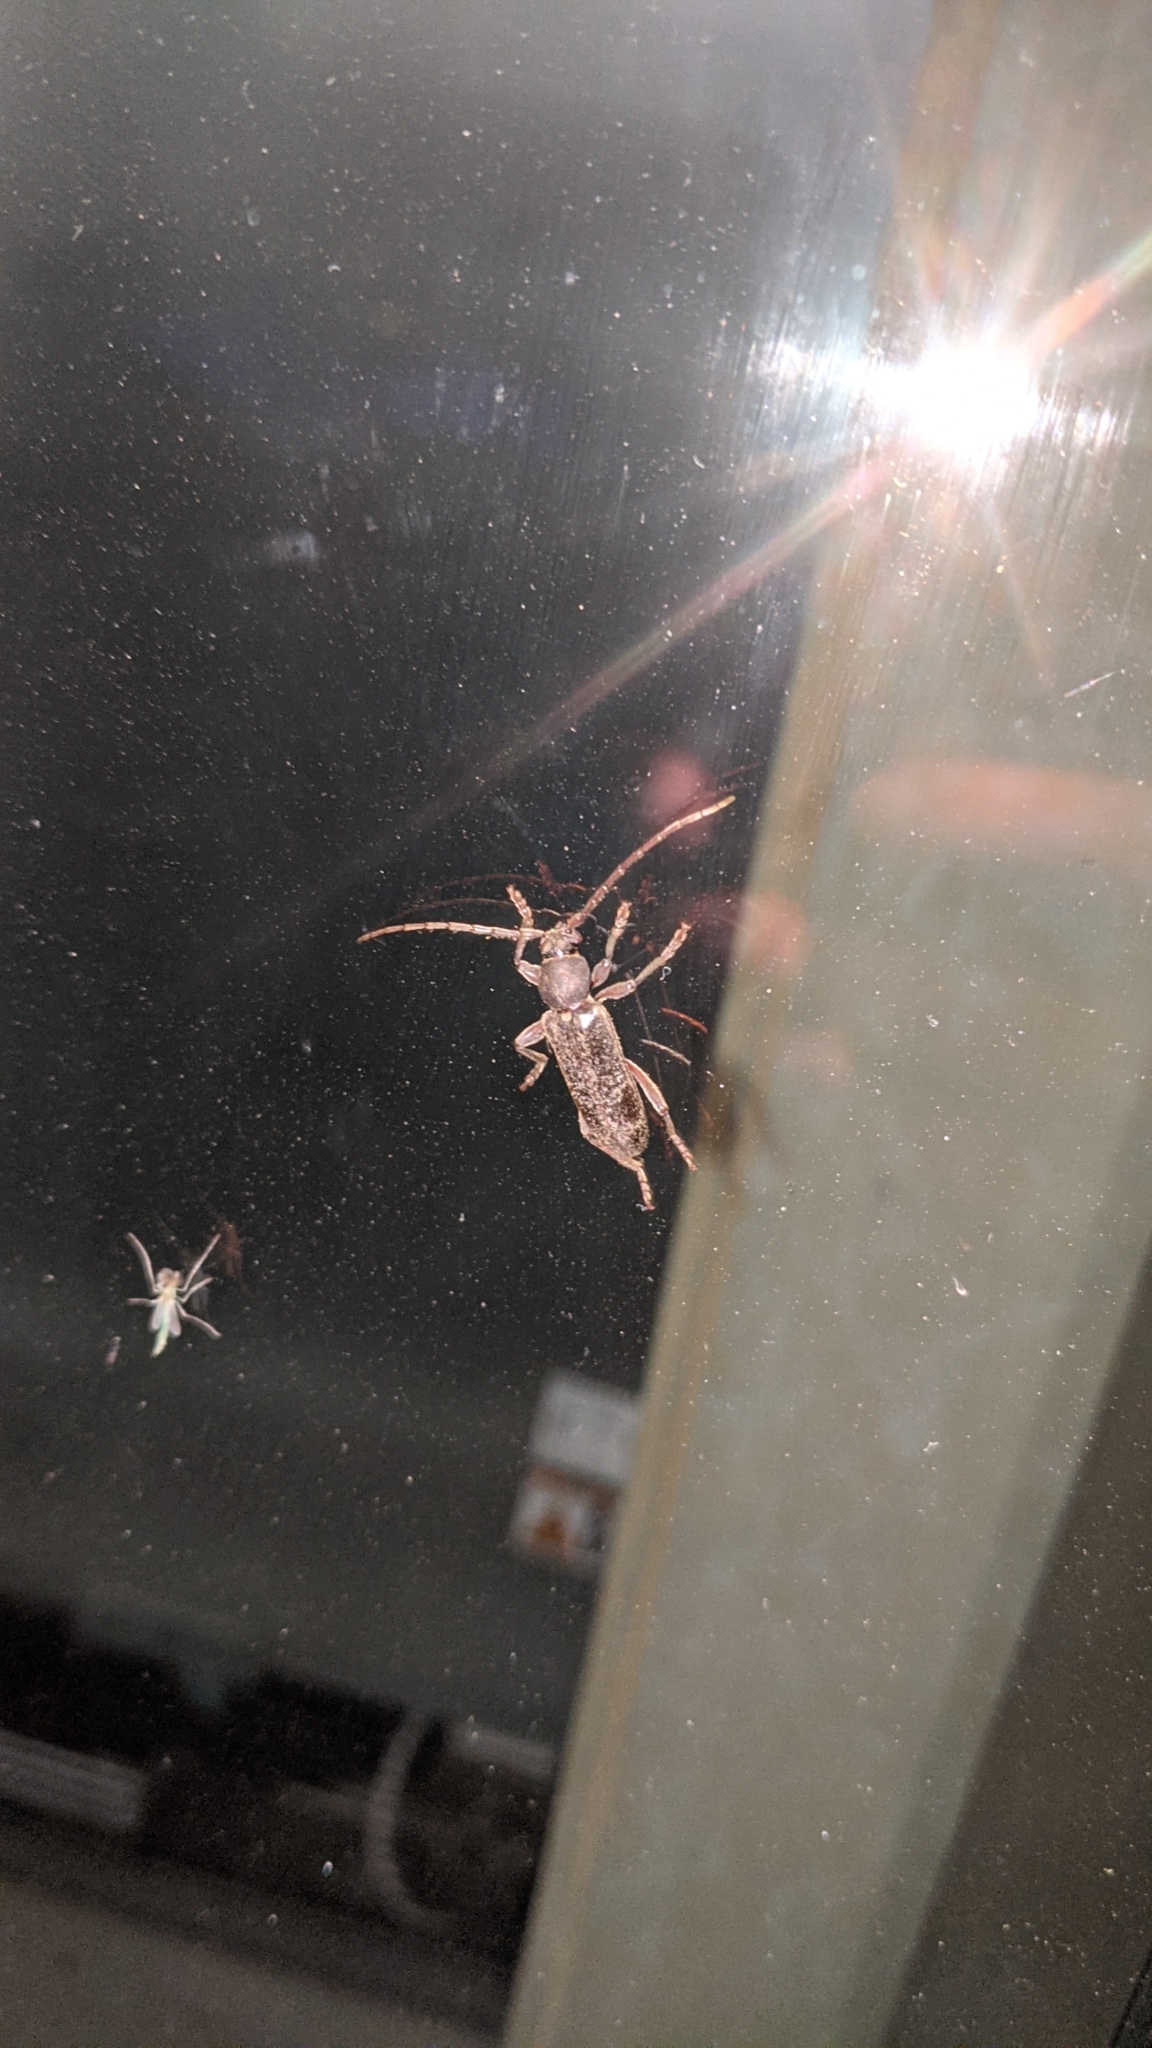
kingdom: Animalia
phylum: Arthropoda
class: Insecta
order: Coleoptera
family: Cerambycidae
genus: Trichoferus
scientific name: Trichoferus campestris
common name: Velvet long horned beetle
